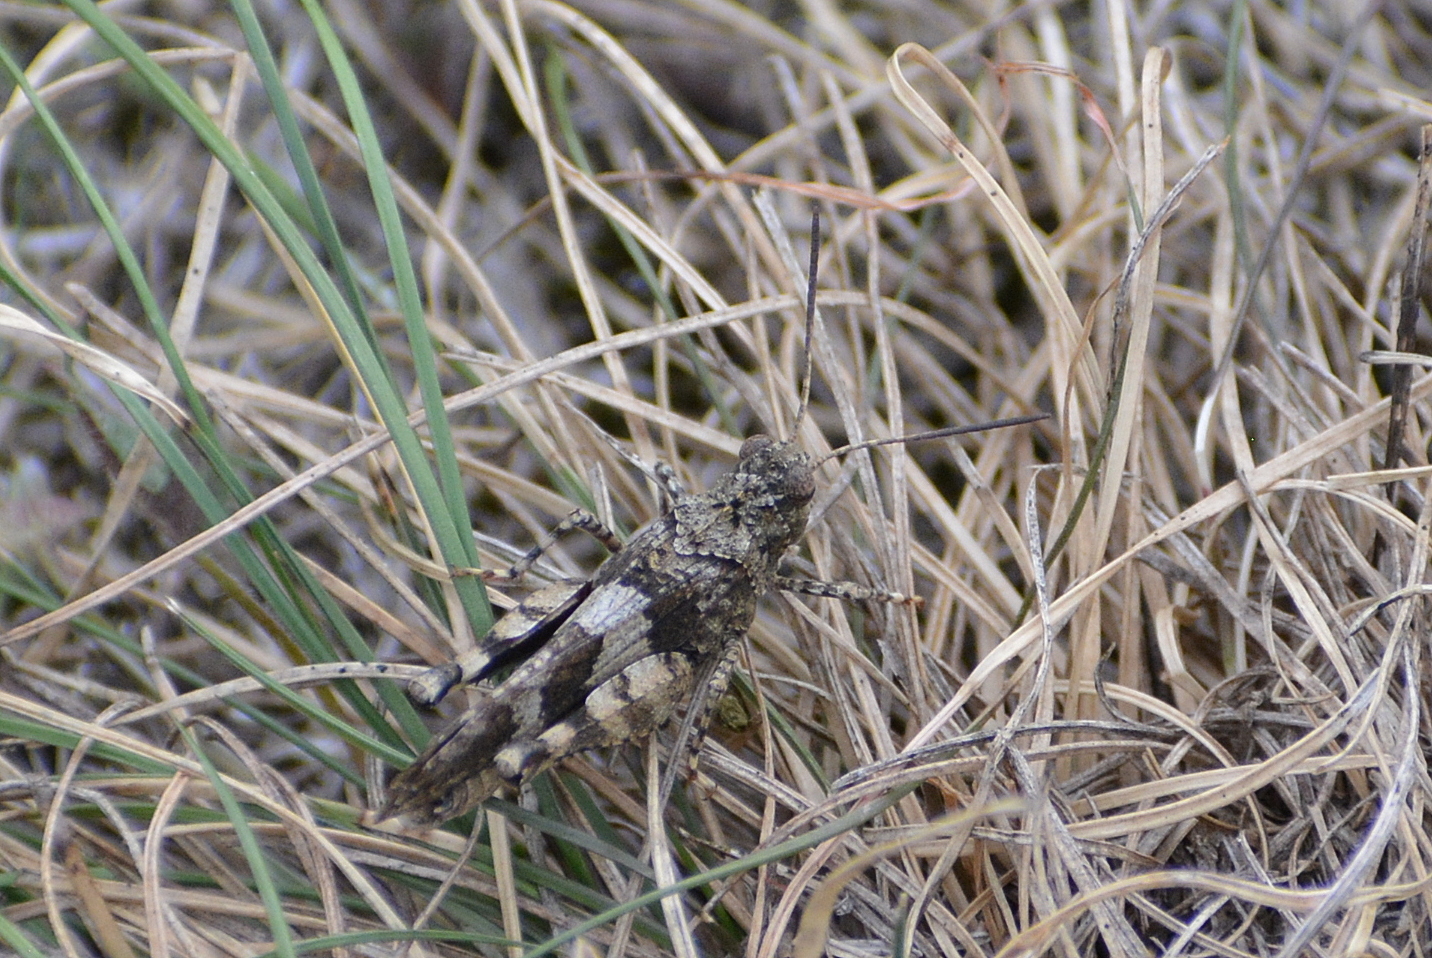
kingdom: Animalia
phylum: Arthropoda
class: Insecta
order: Orthoptera
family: Acrididae
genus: Oedipoda
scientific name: Oedipoda caerulescens
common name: Blue-winged grasshopper
